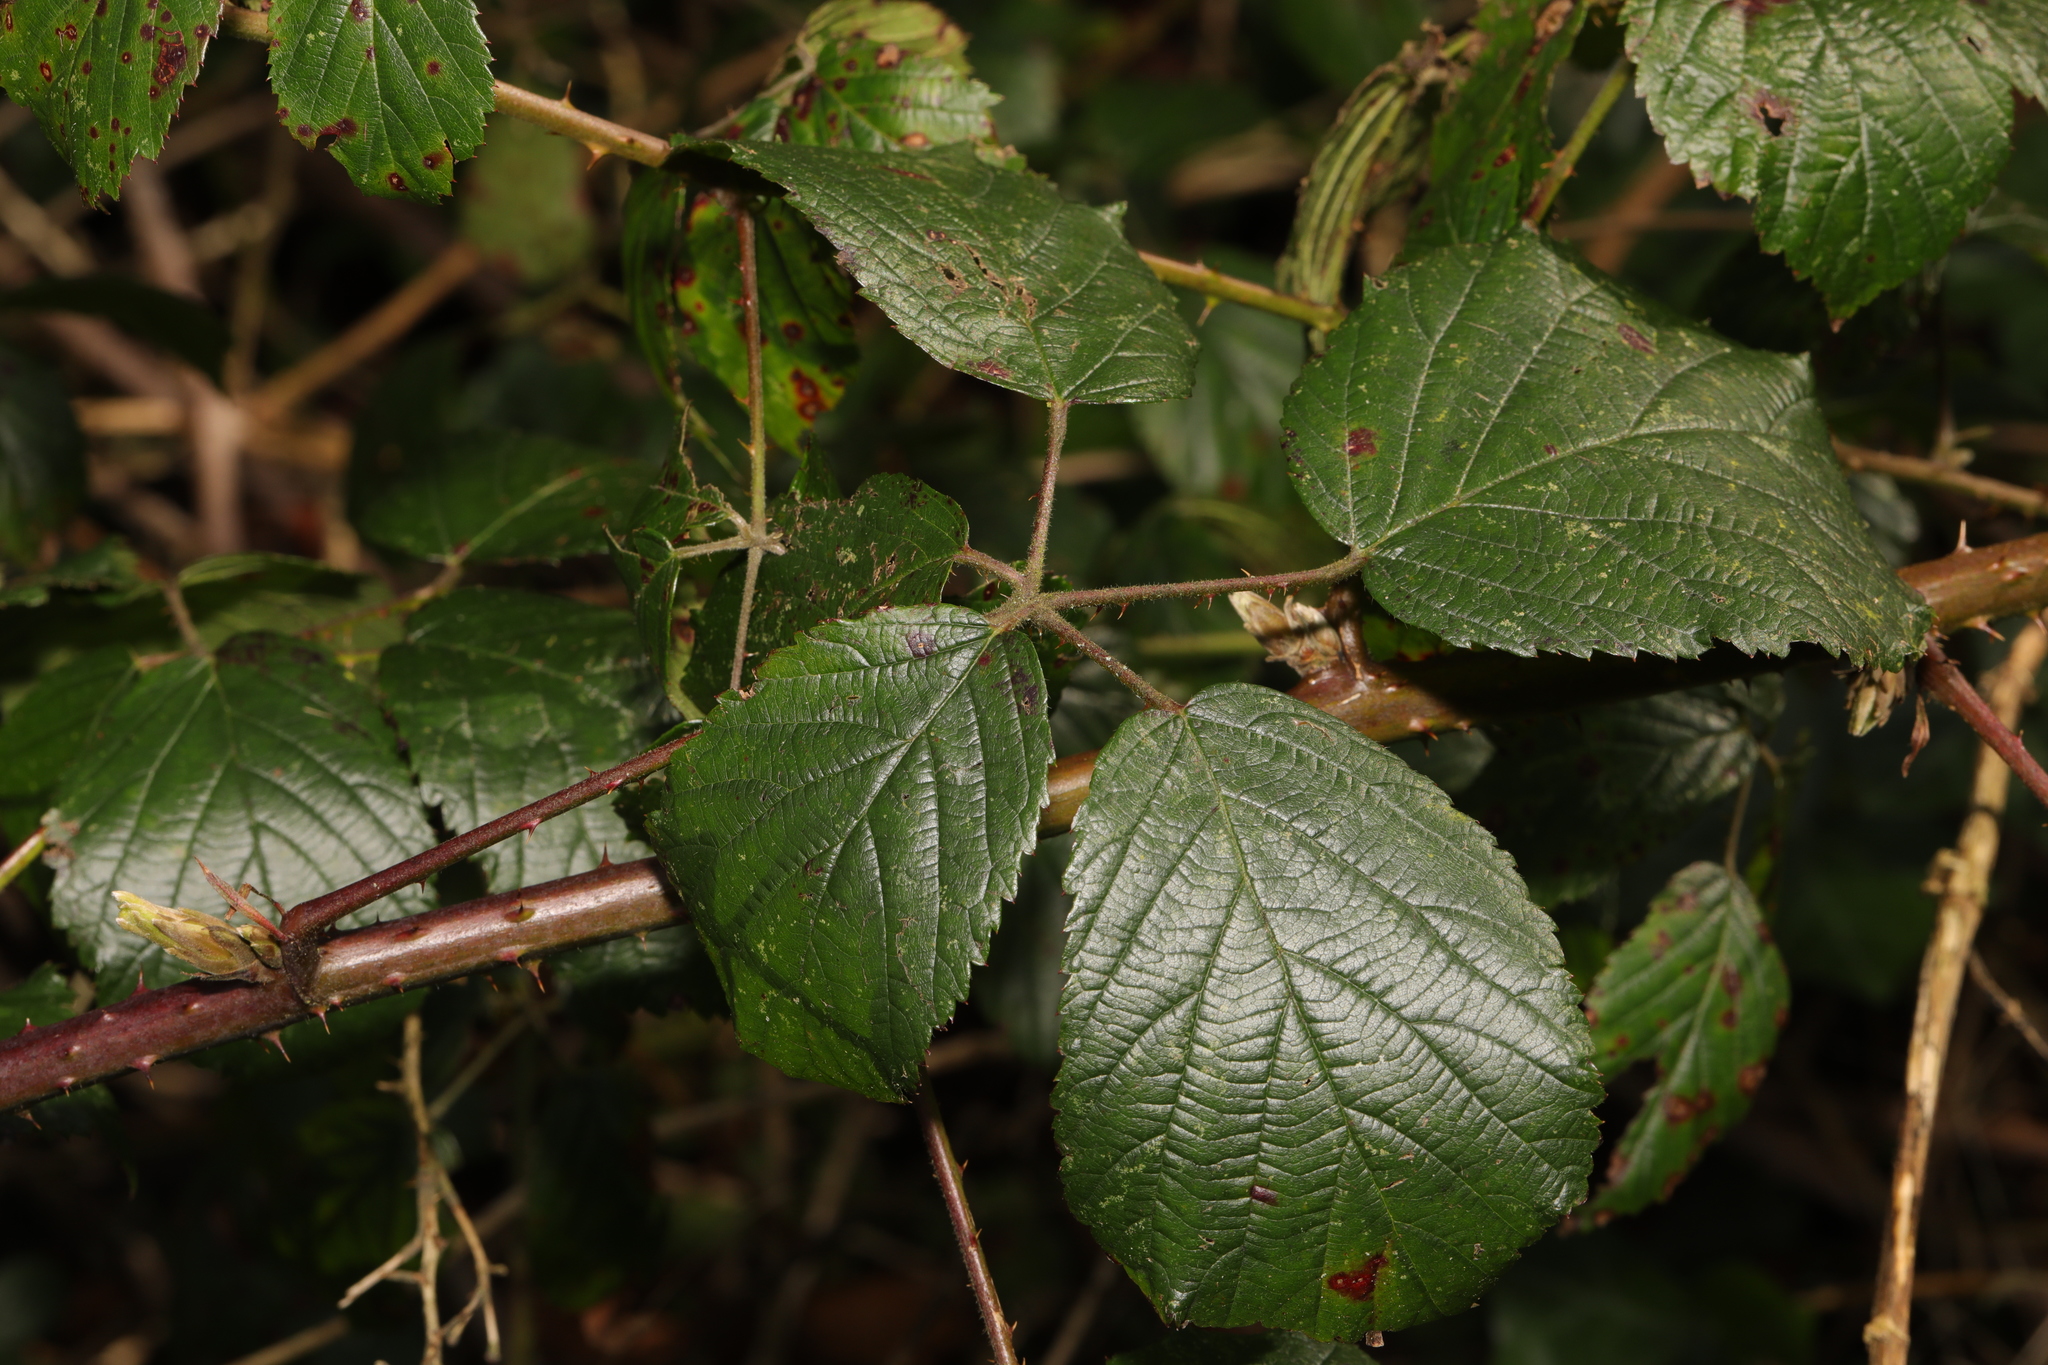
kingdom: Plantae
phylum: Tracheophyta
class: Magnoliopsida
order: Rosales
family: Rosaceae
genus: Rubus
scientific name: Rubus cissburiensis
